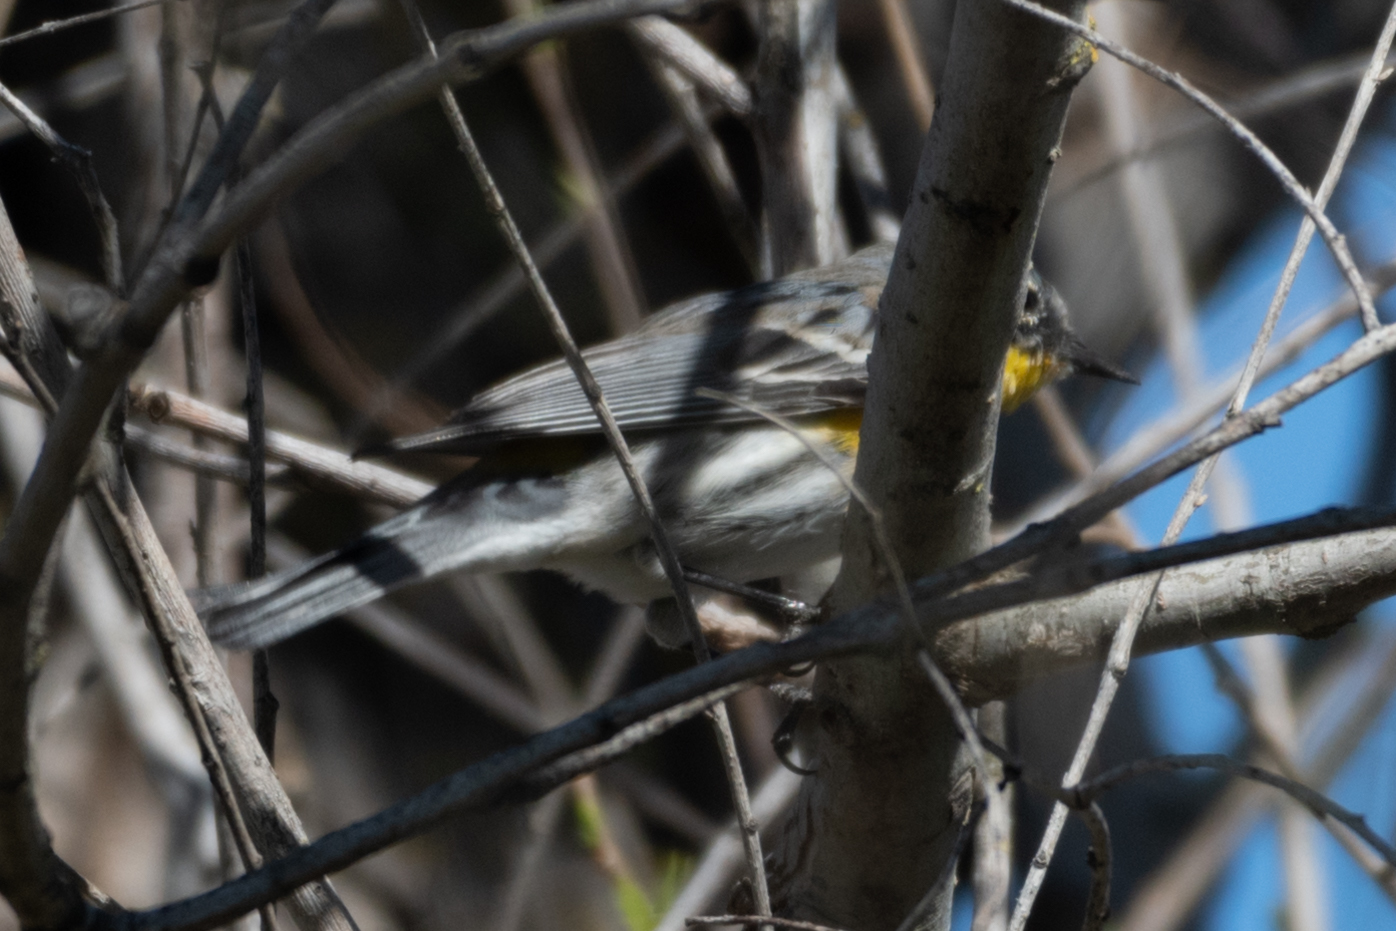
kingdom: Animalia
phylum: Chordata
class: Aves
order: Passeriformes
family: Parulidae
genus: Setophaga
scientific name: Setophaga coronata
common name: Myrtle warbler
